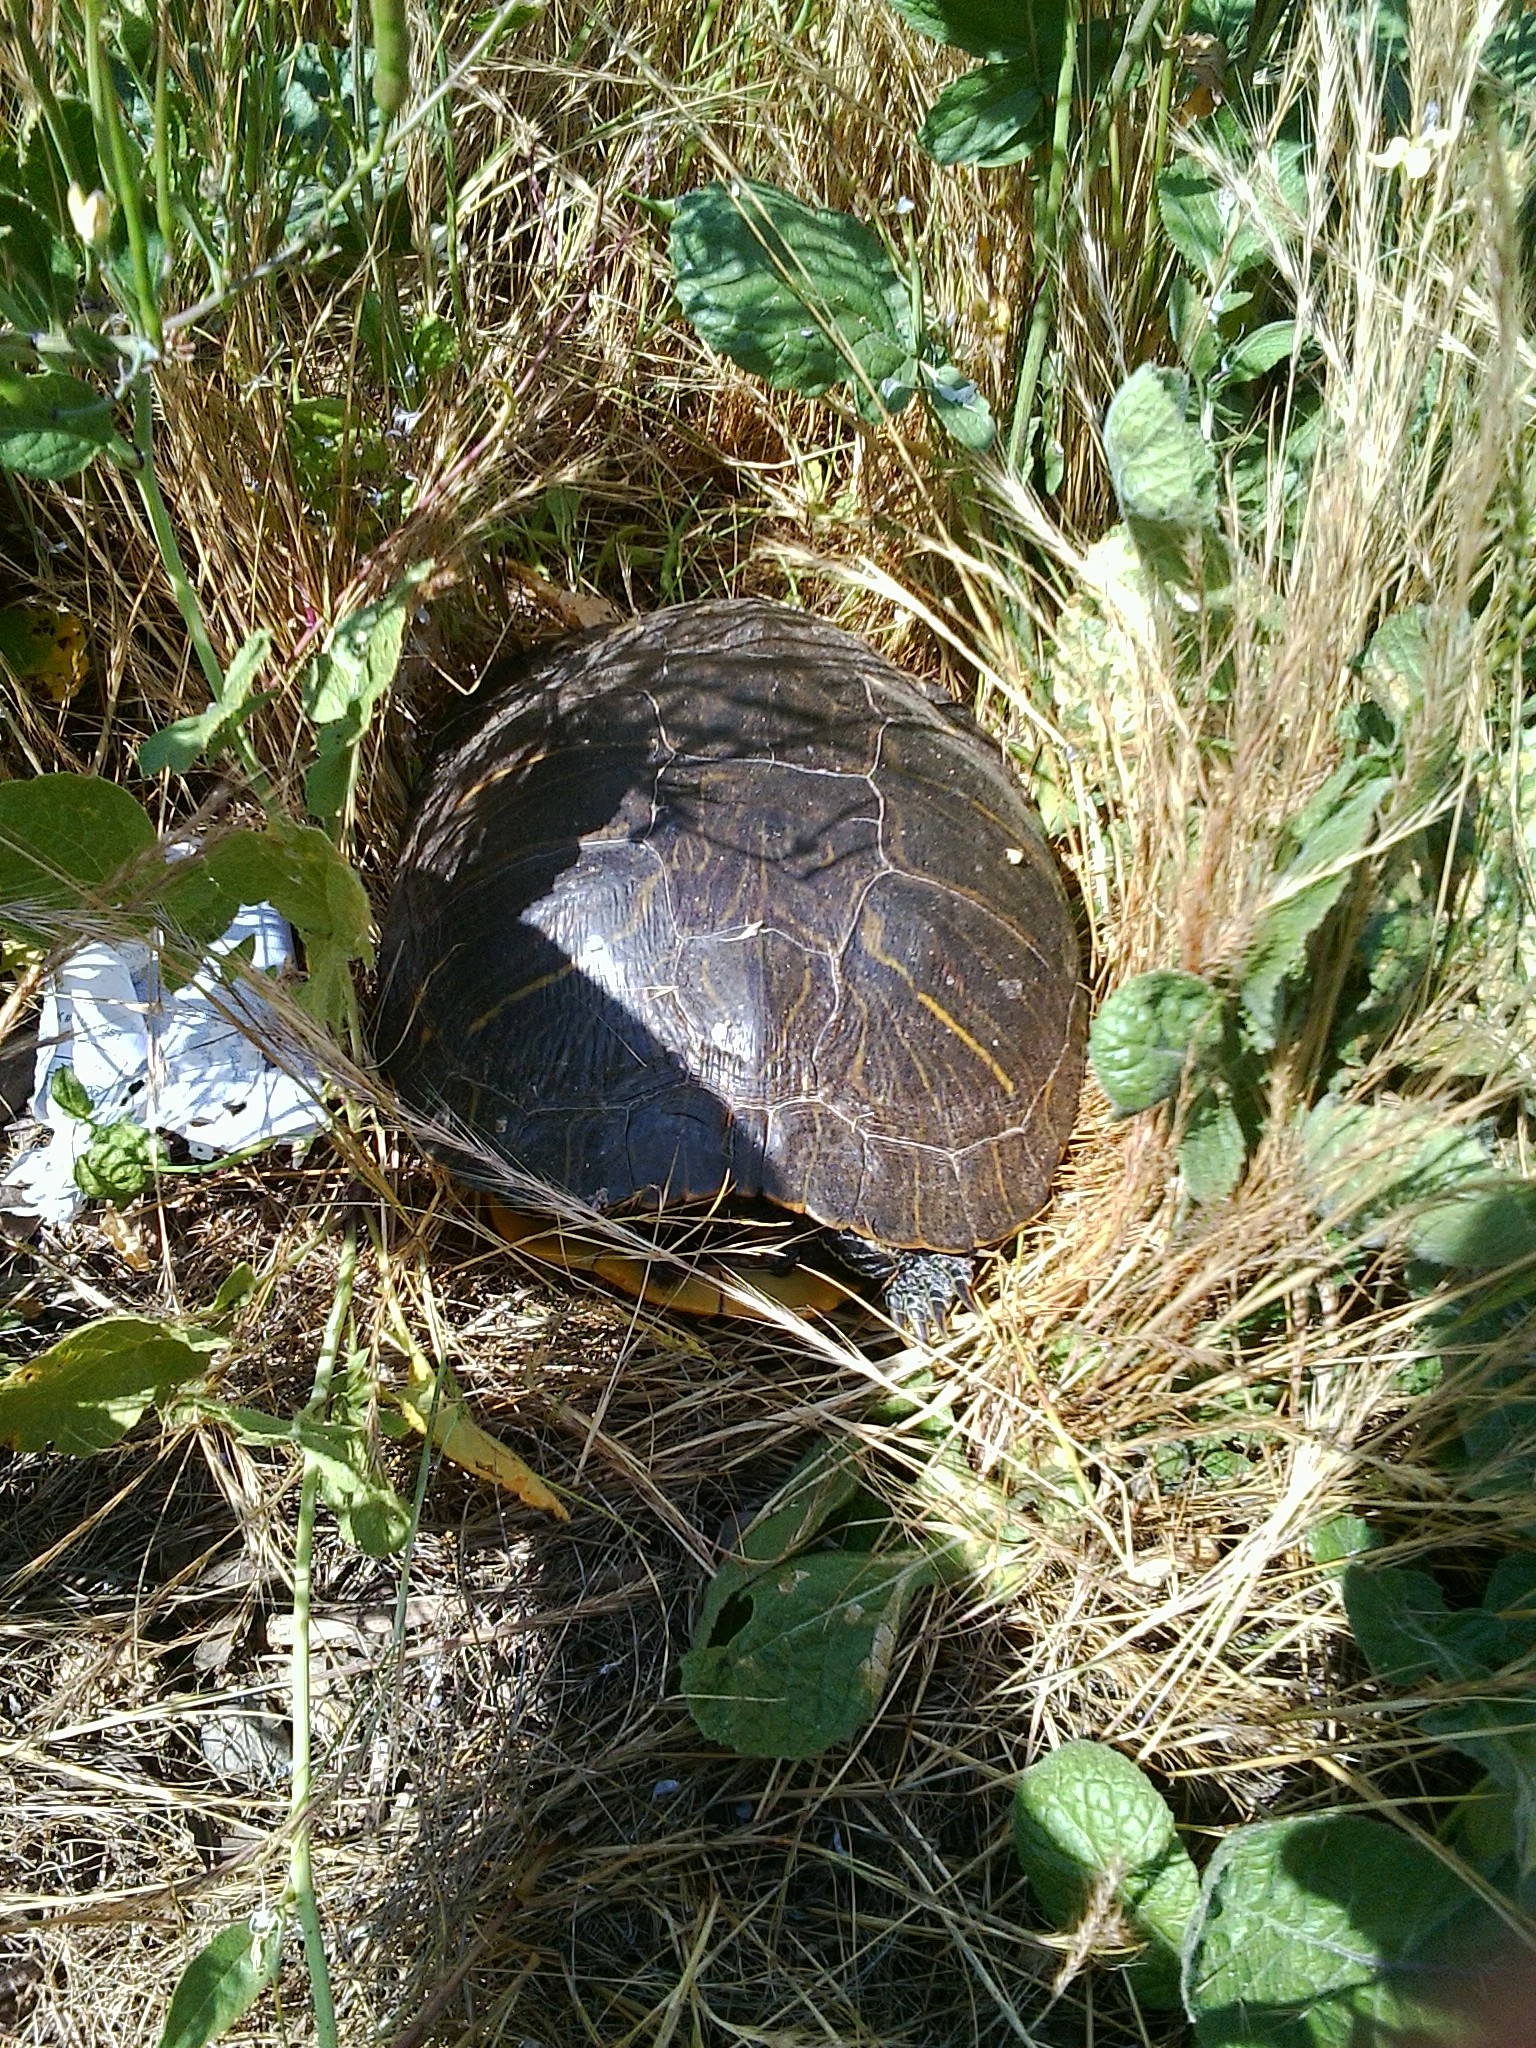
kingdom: Animalia
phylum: Chordata
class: Testudines
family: Emydidae
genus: Trachemys
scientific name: Trachemys scripta
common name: Slider
